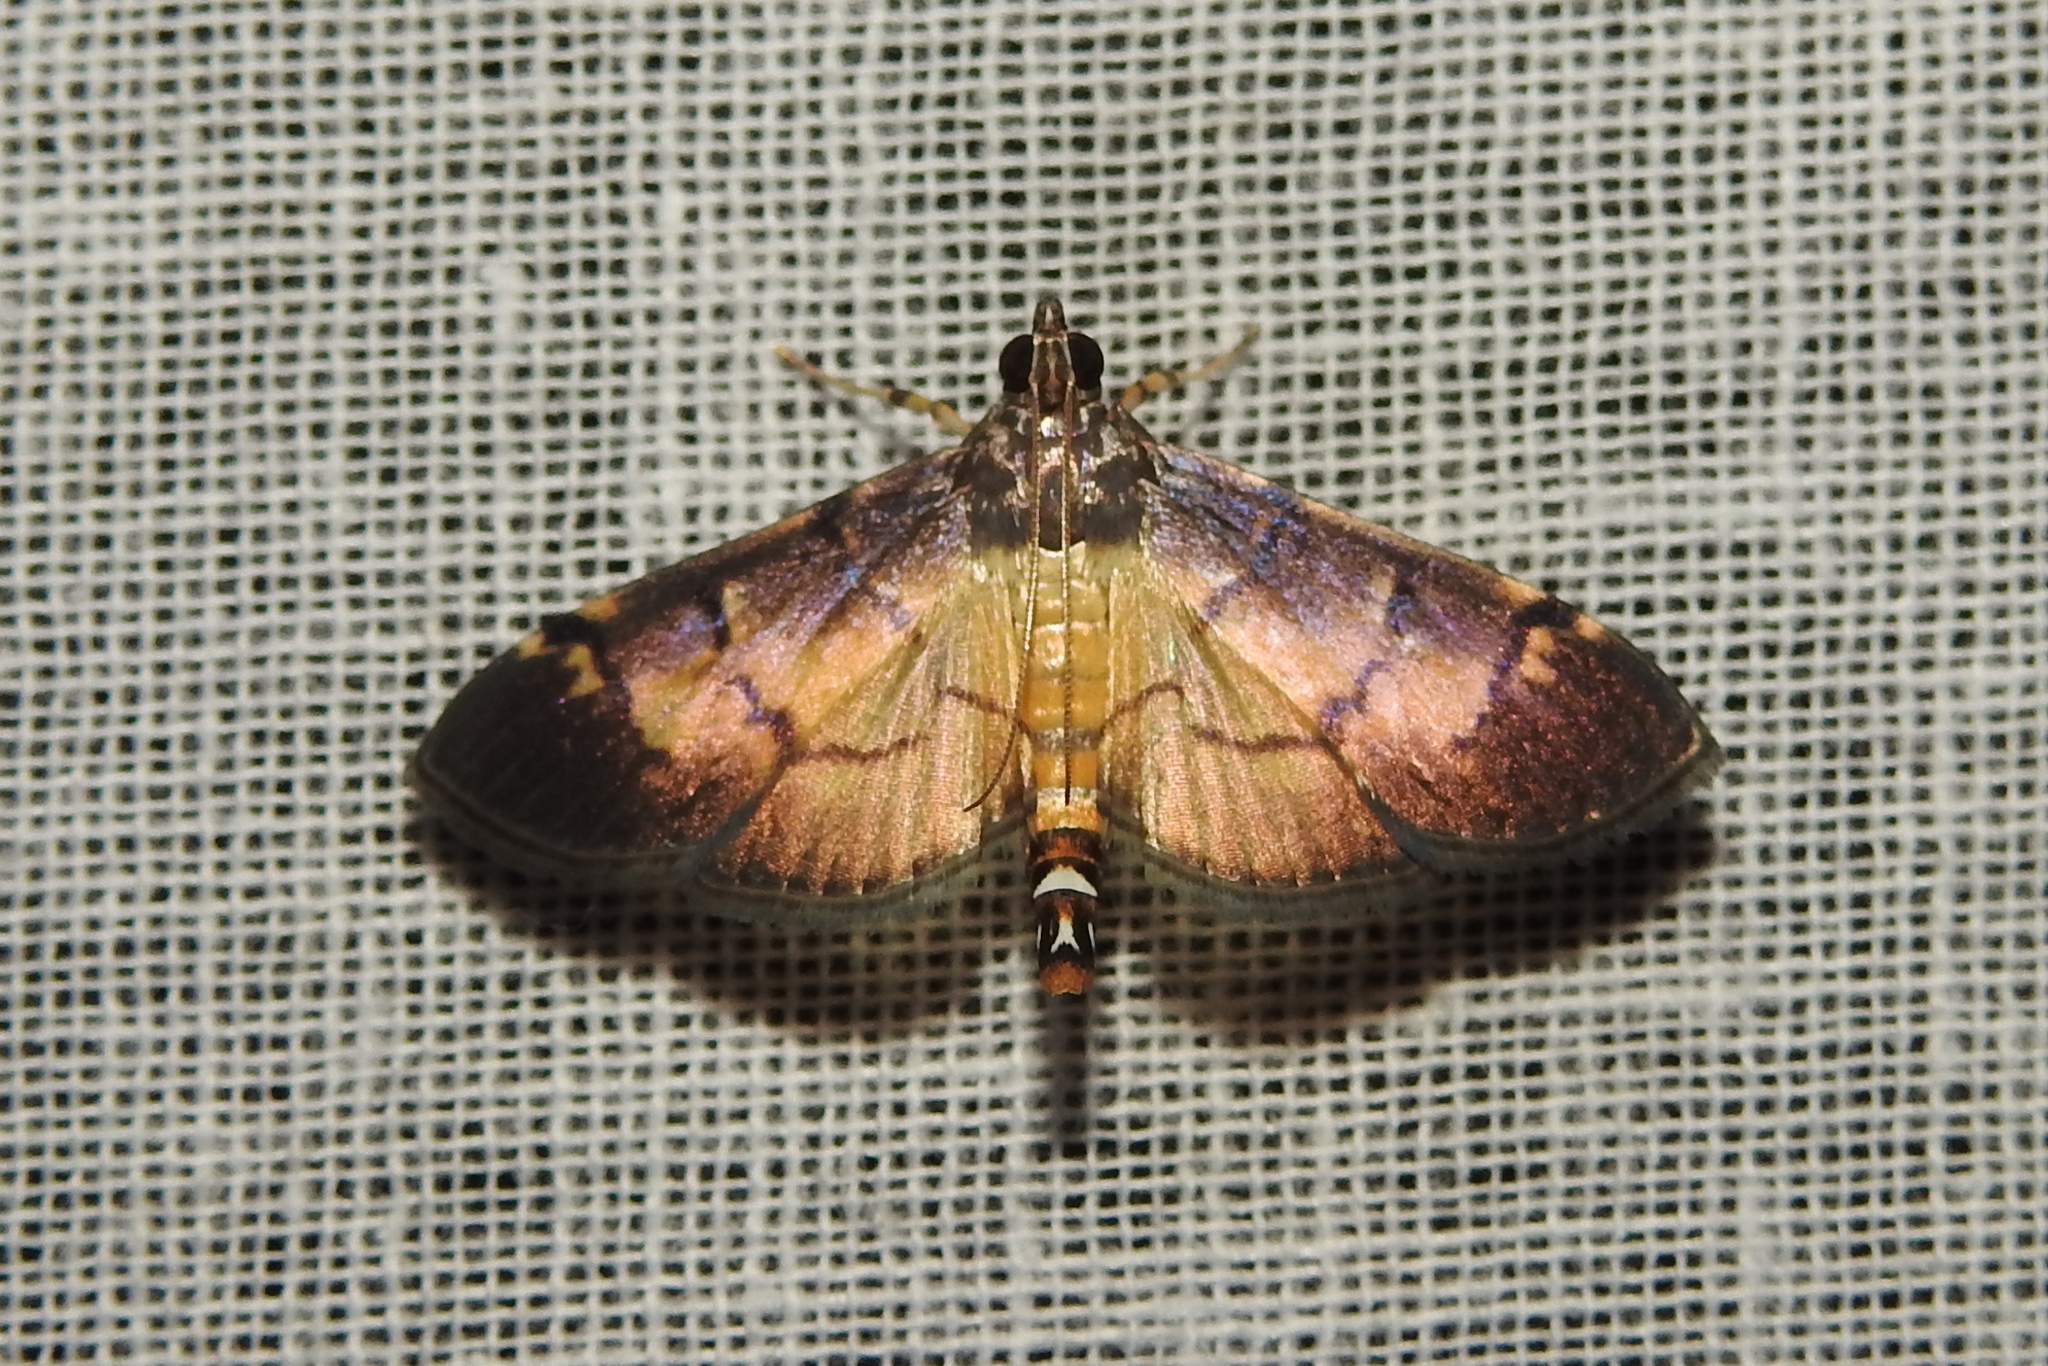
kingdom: Animalia
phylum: Arthropoda
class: Insecta
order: Lepidoptera
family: Crambidae
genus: Cnaphalocrocis
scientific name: Cnaphalocrocis poeyalis
